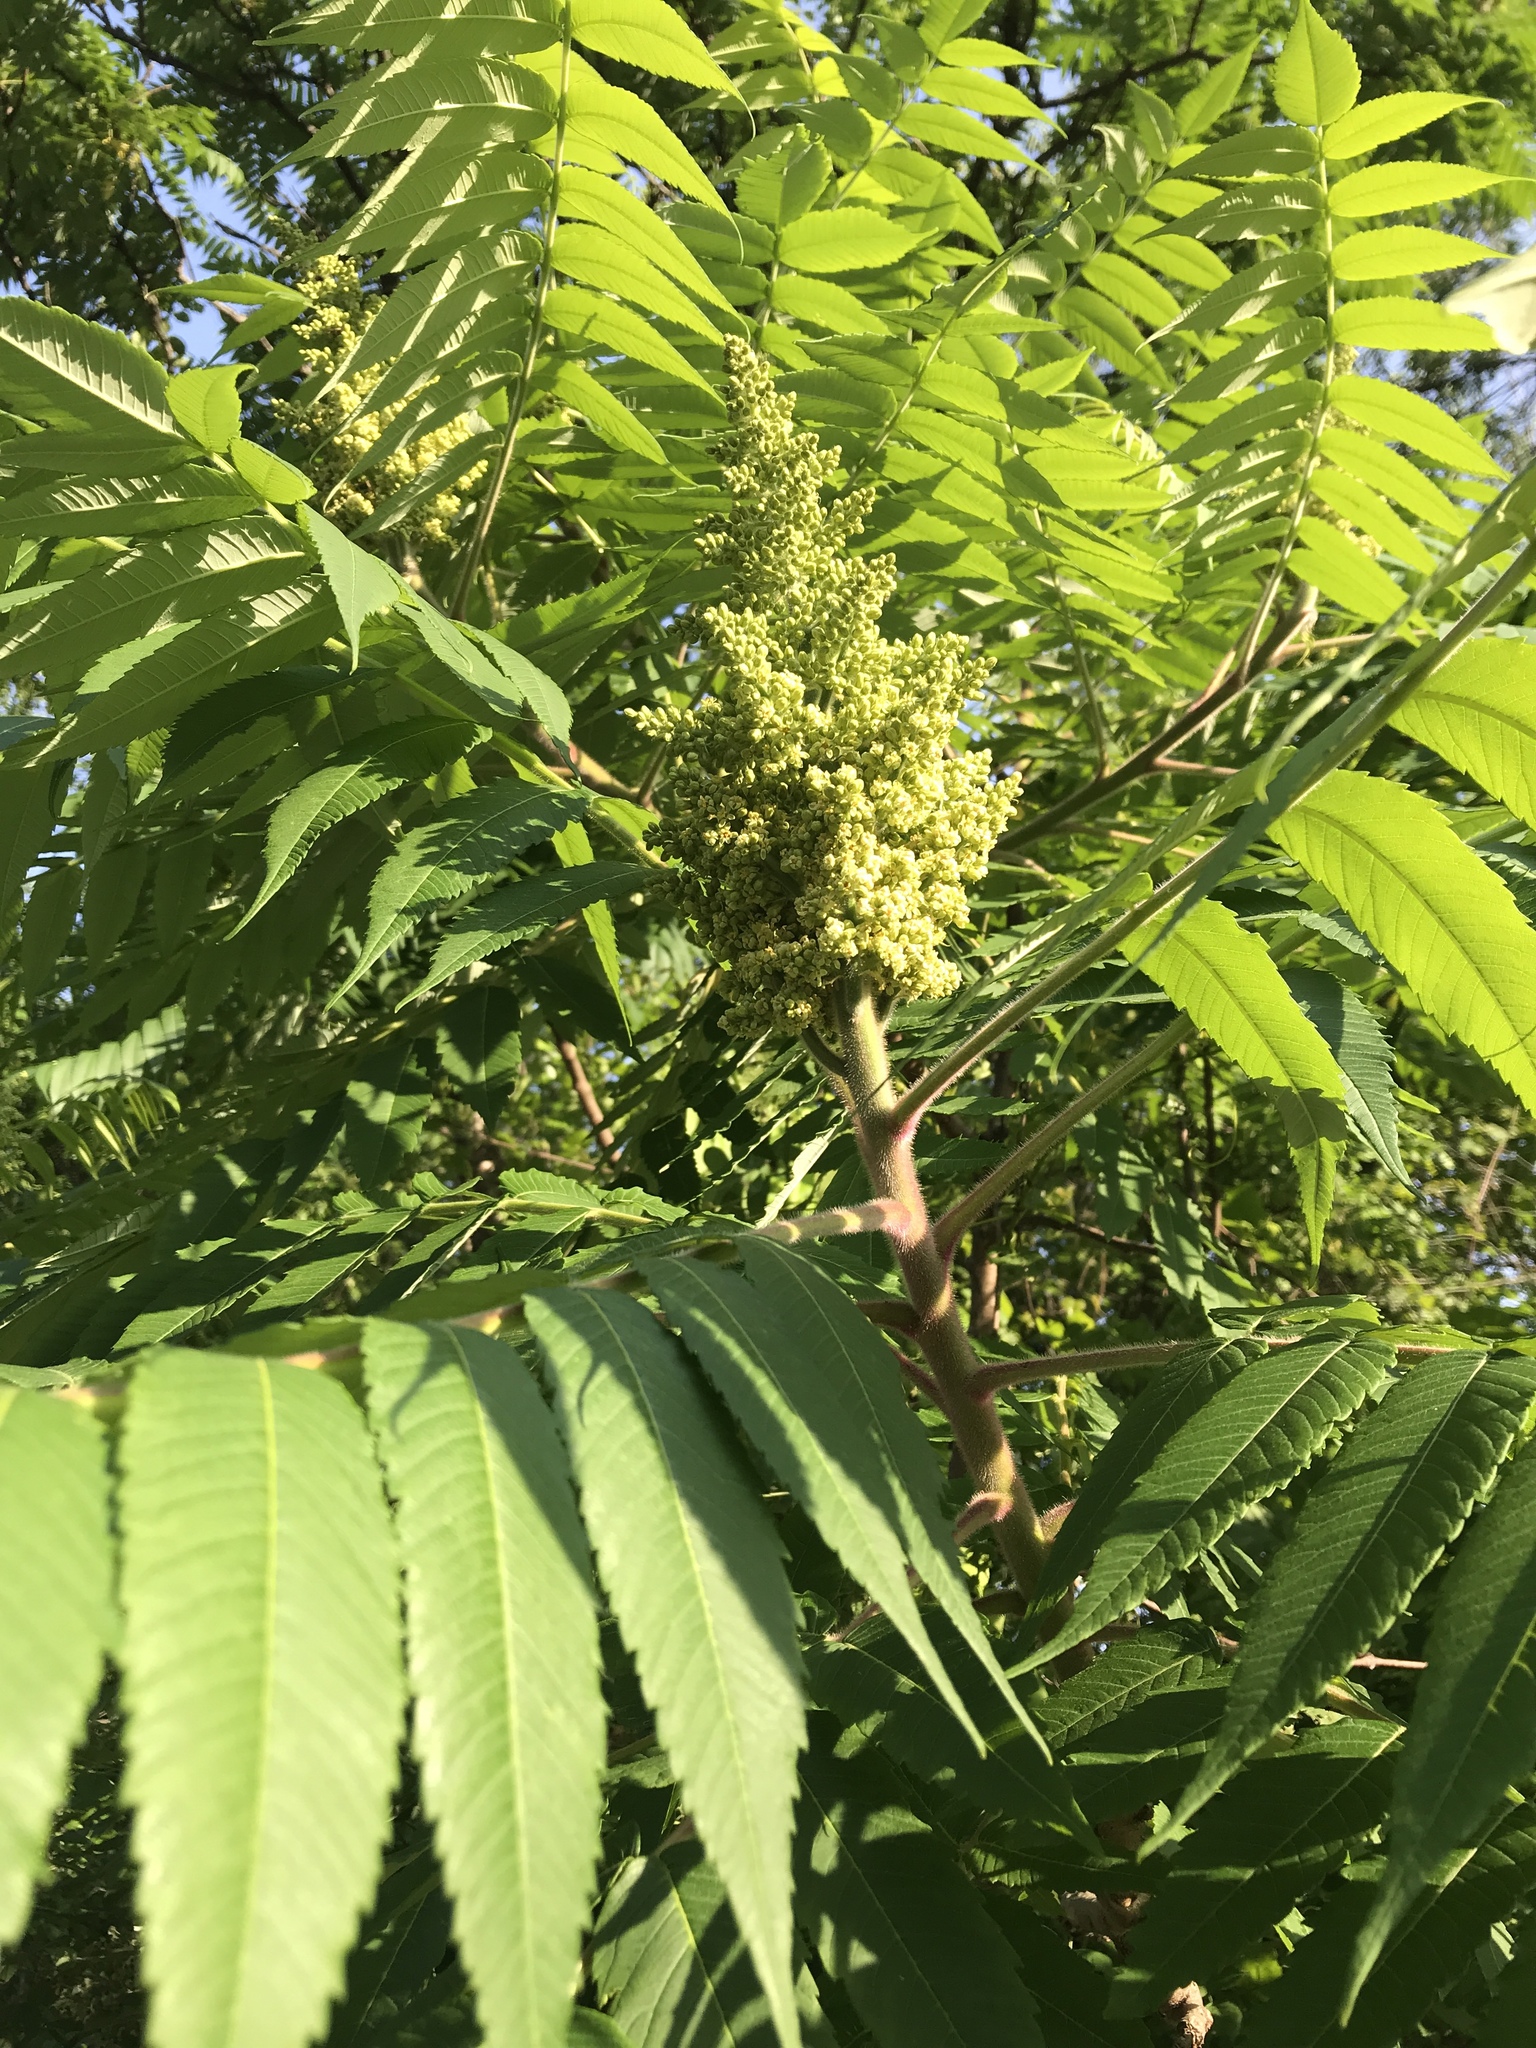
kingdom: Plantae
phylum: Tracheophyta
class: Magnoliopsida
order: Sapindales
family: Anacardiaceae
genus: Rhus
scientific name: Rhus typhina
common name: Staghorn sumac
